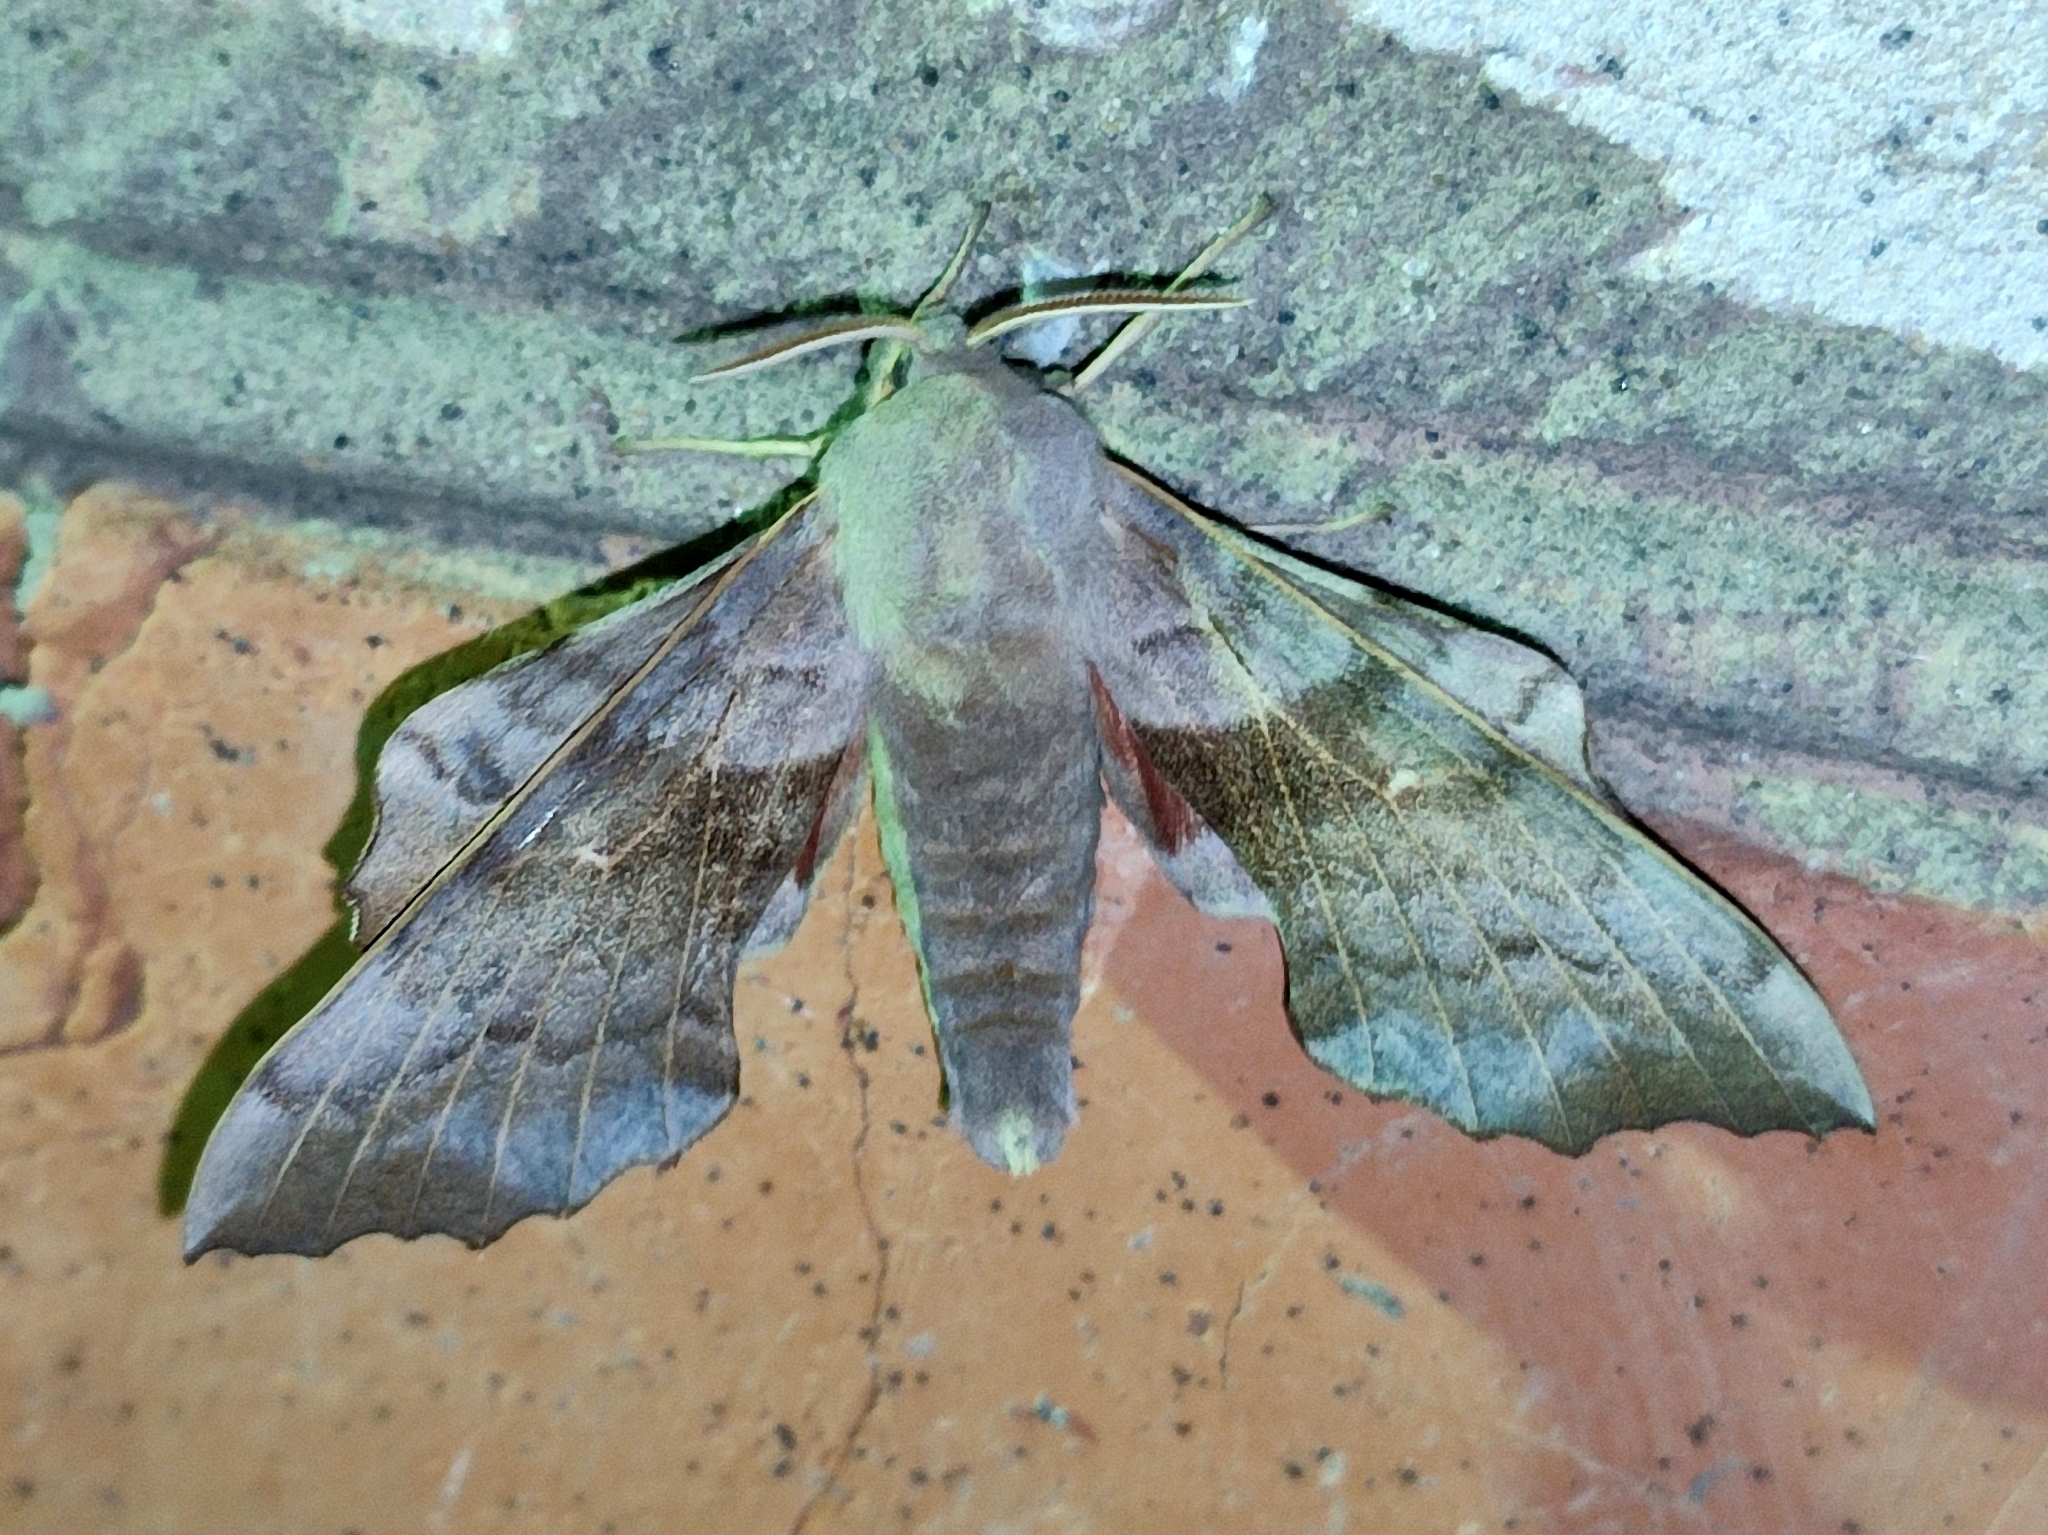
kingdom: Animalia
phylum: Arthropoda
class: Insecta
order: Lepidoptera
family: Sphingidae
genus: Laothoe
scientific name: Laothoe populi
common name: Poplar hawk-moth
